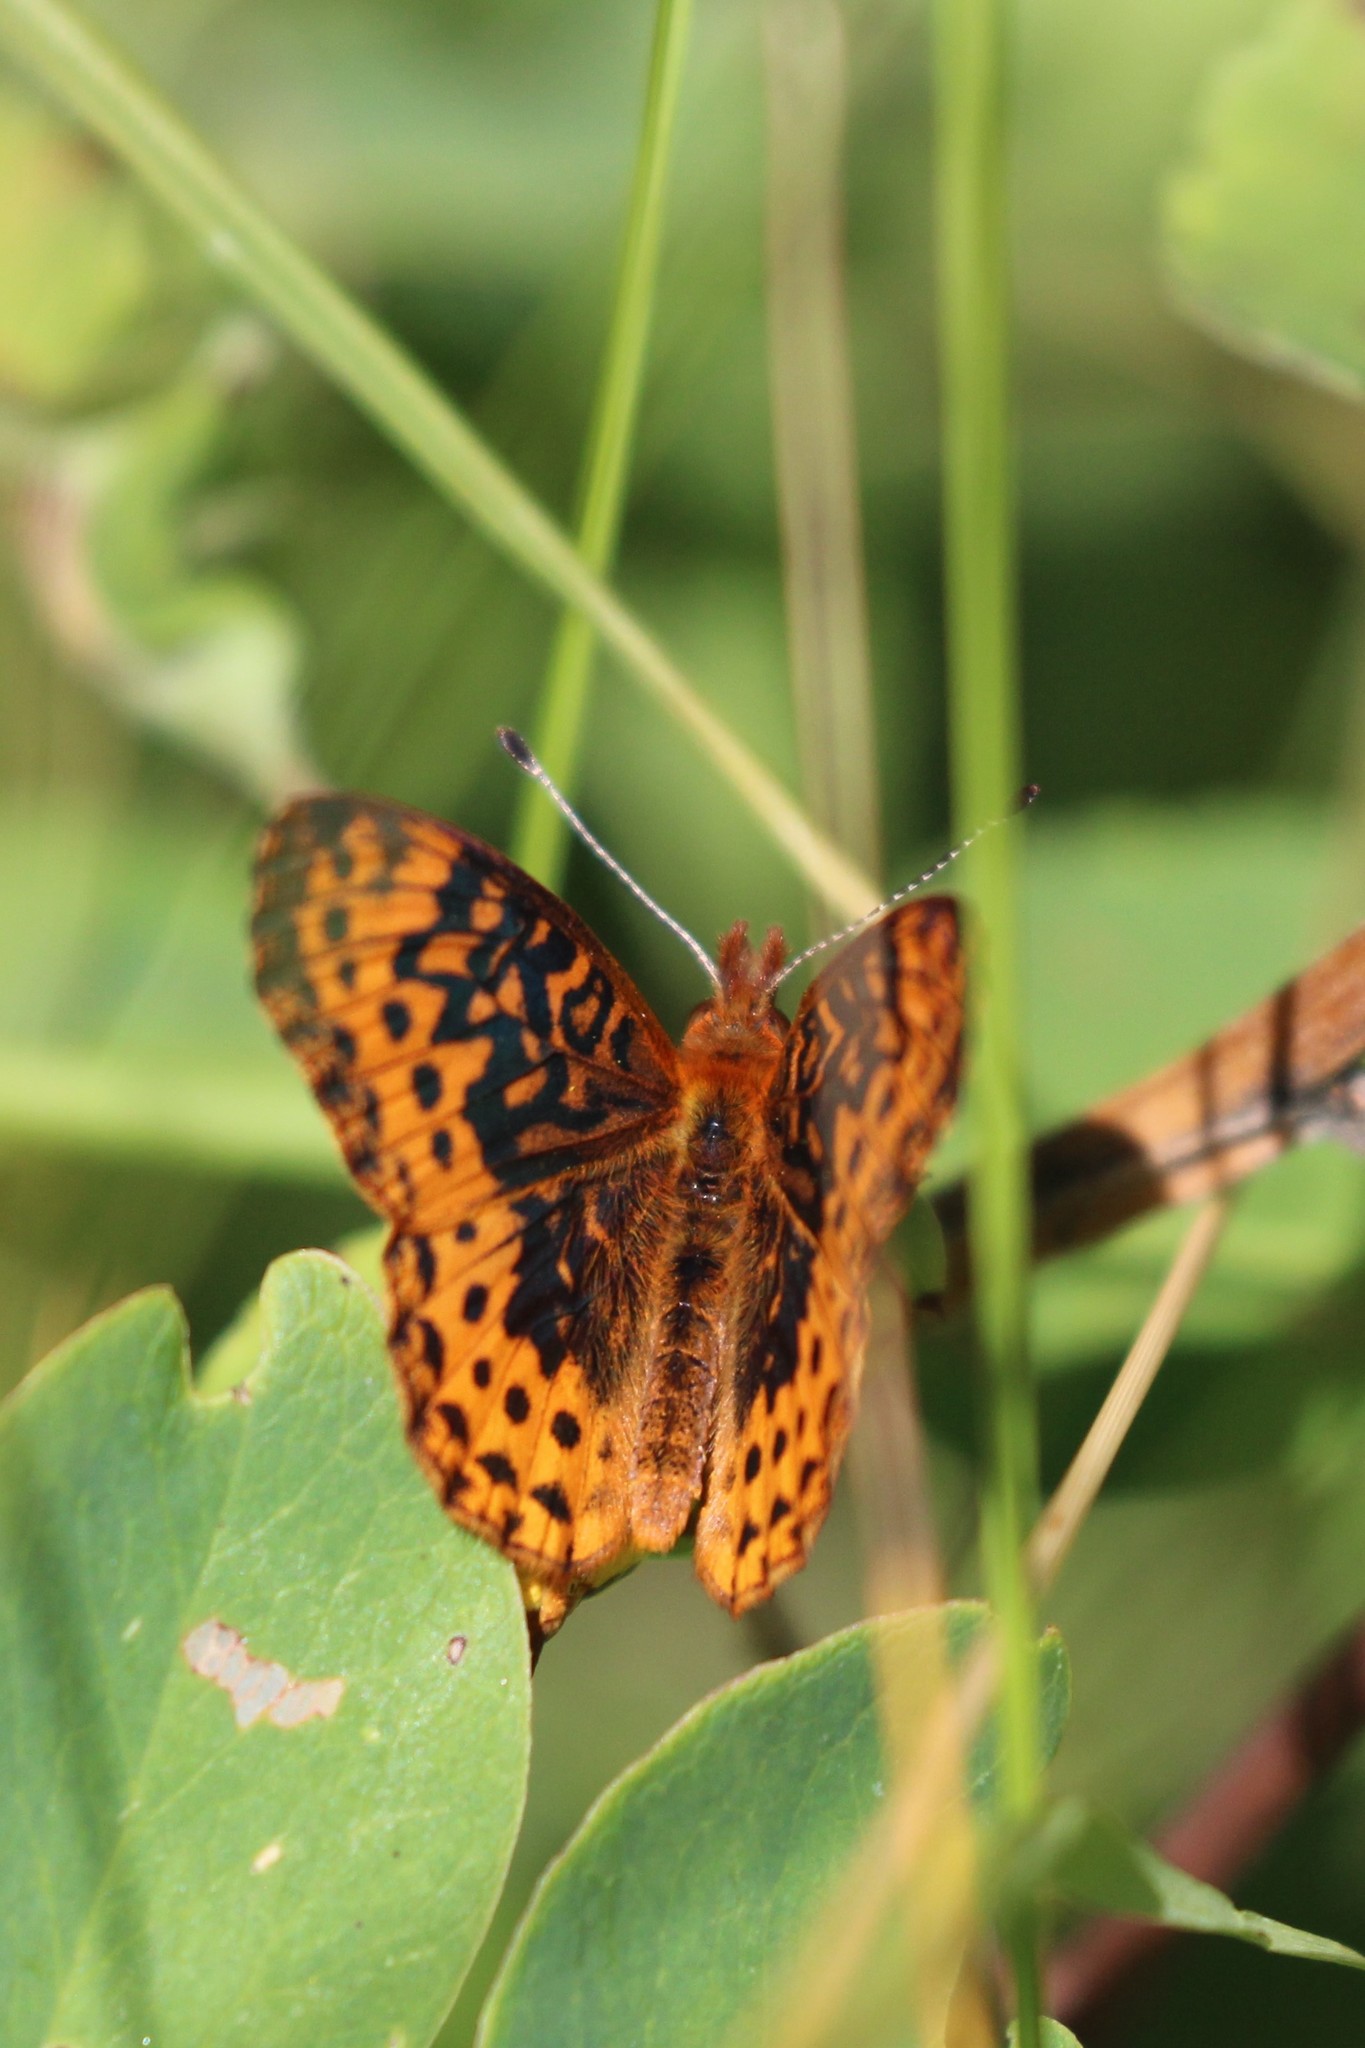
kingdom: Animalia
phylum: Arthropoda
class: Insecta
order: Lepidoptera
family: Nymphalidae
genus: Clossiana
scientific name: Clossiana toddi
